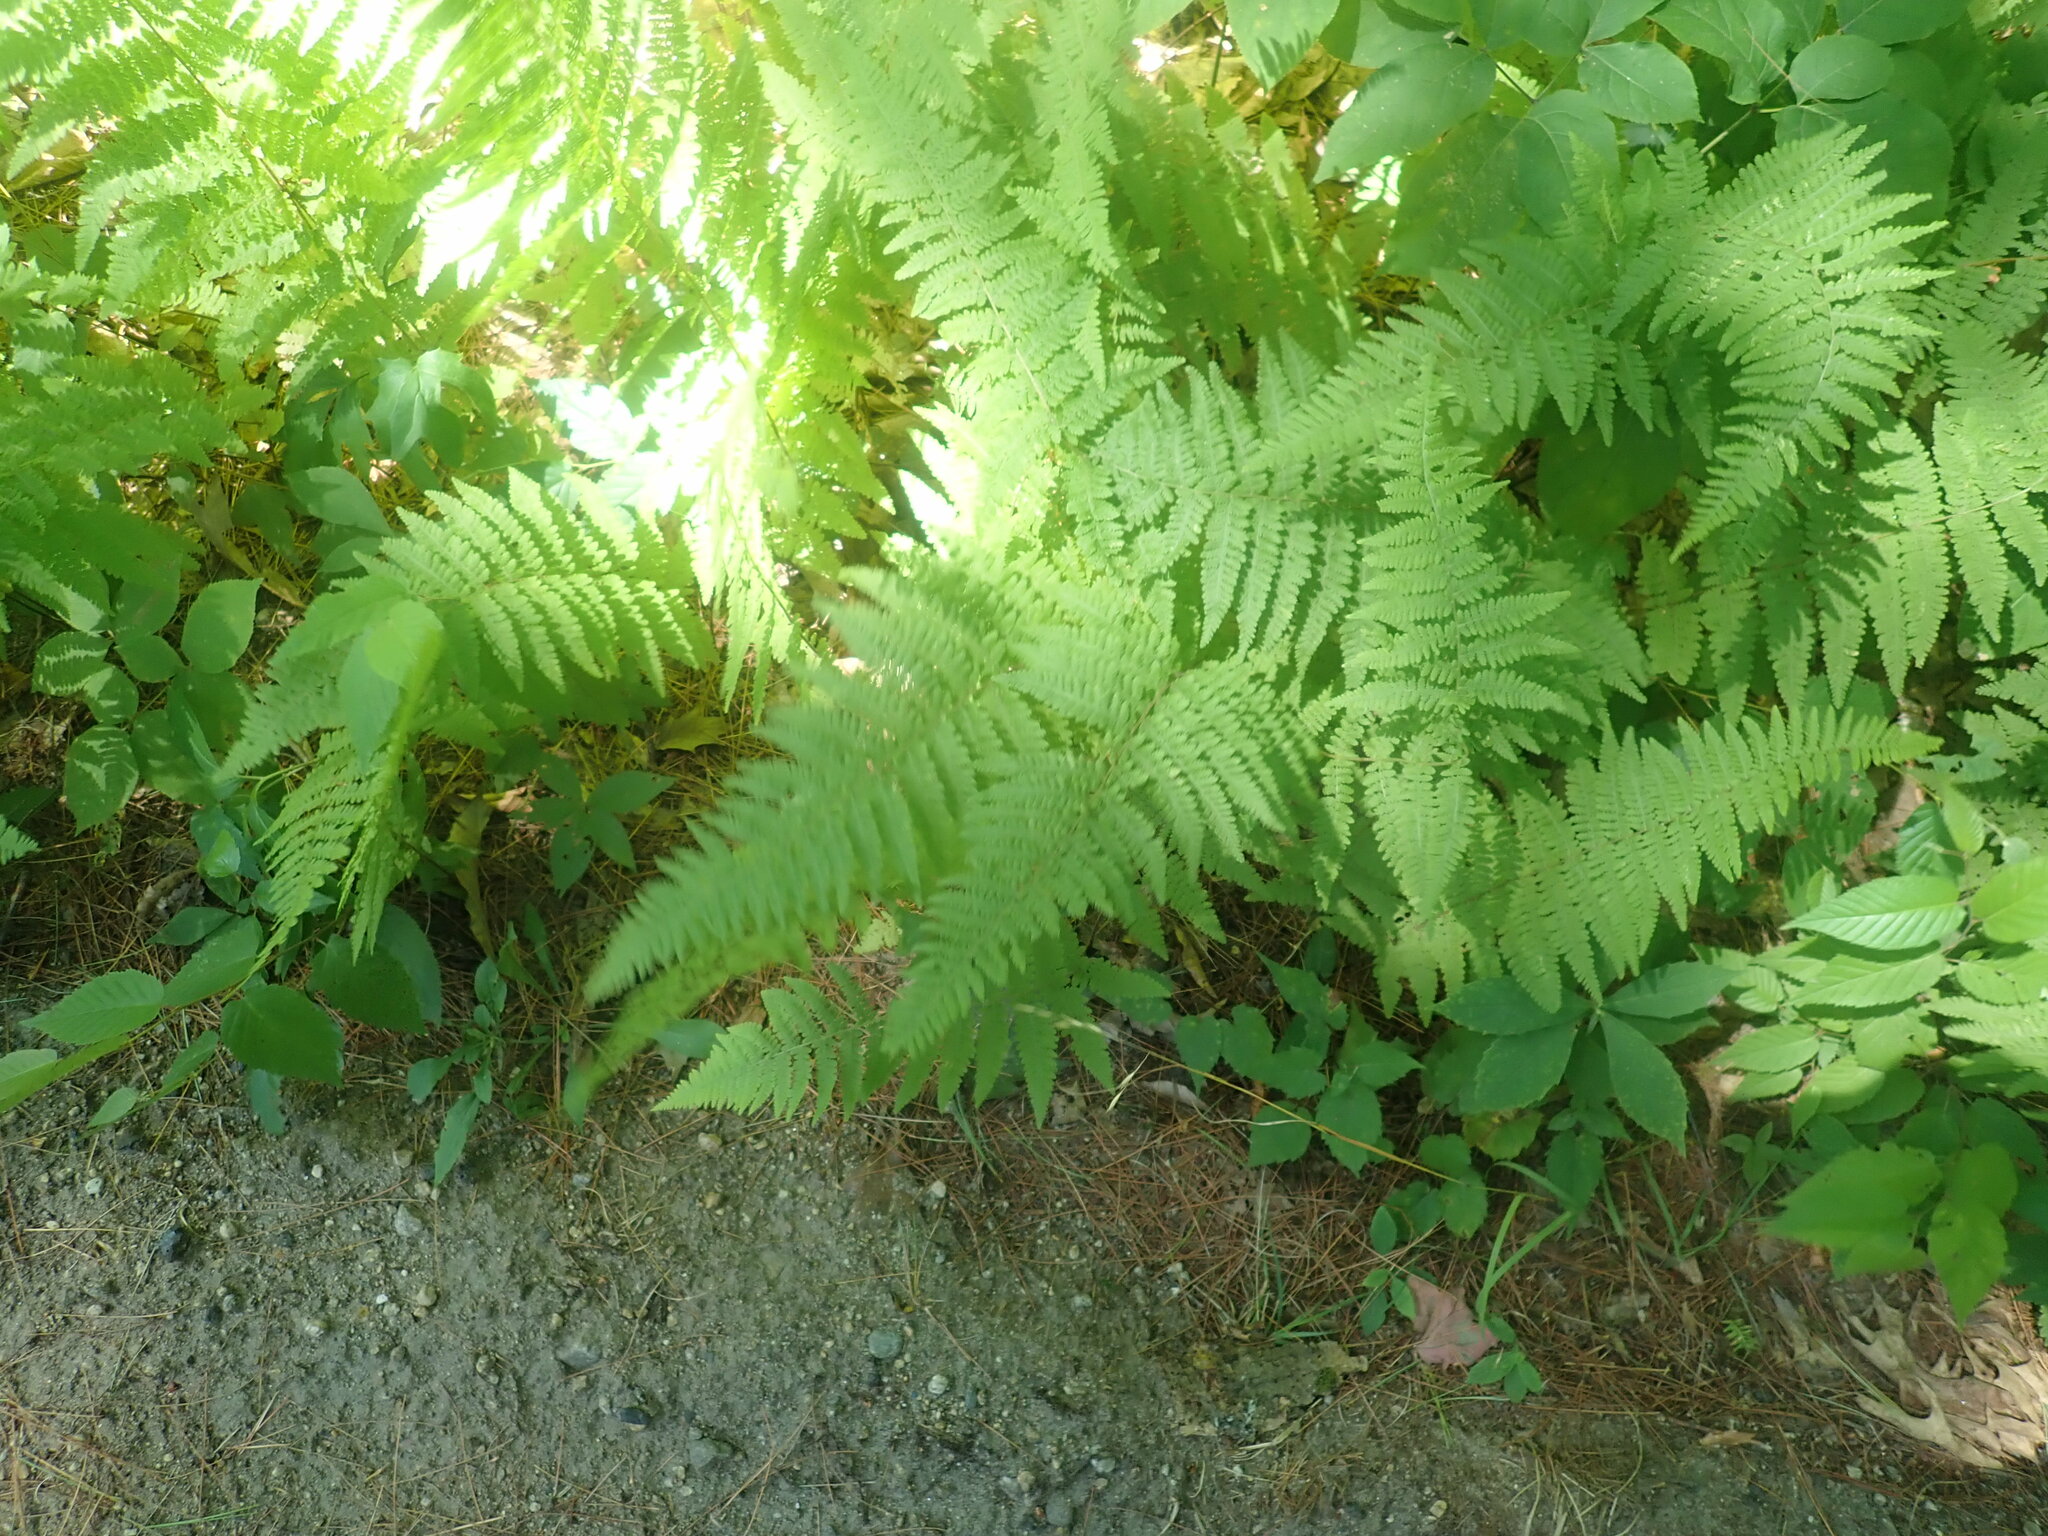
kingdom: Plantae
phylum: Tracheophyta
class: Polypodiopsida
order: Polypodiales
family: Dennstaedtiaceae
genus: Sitobolium
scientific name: Sitobolium punctilobum
